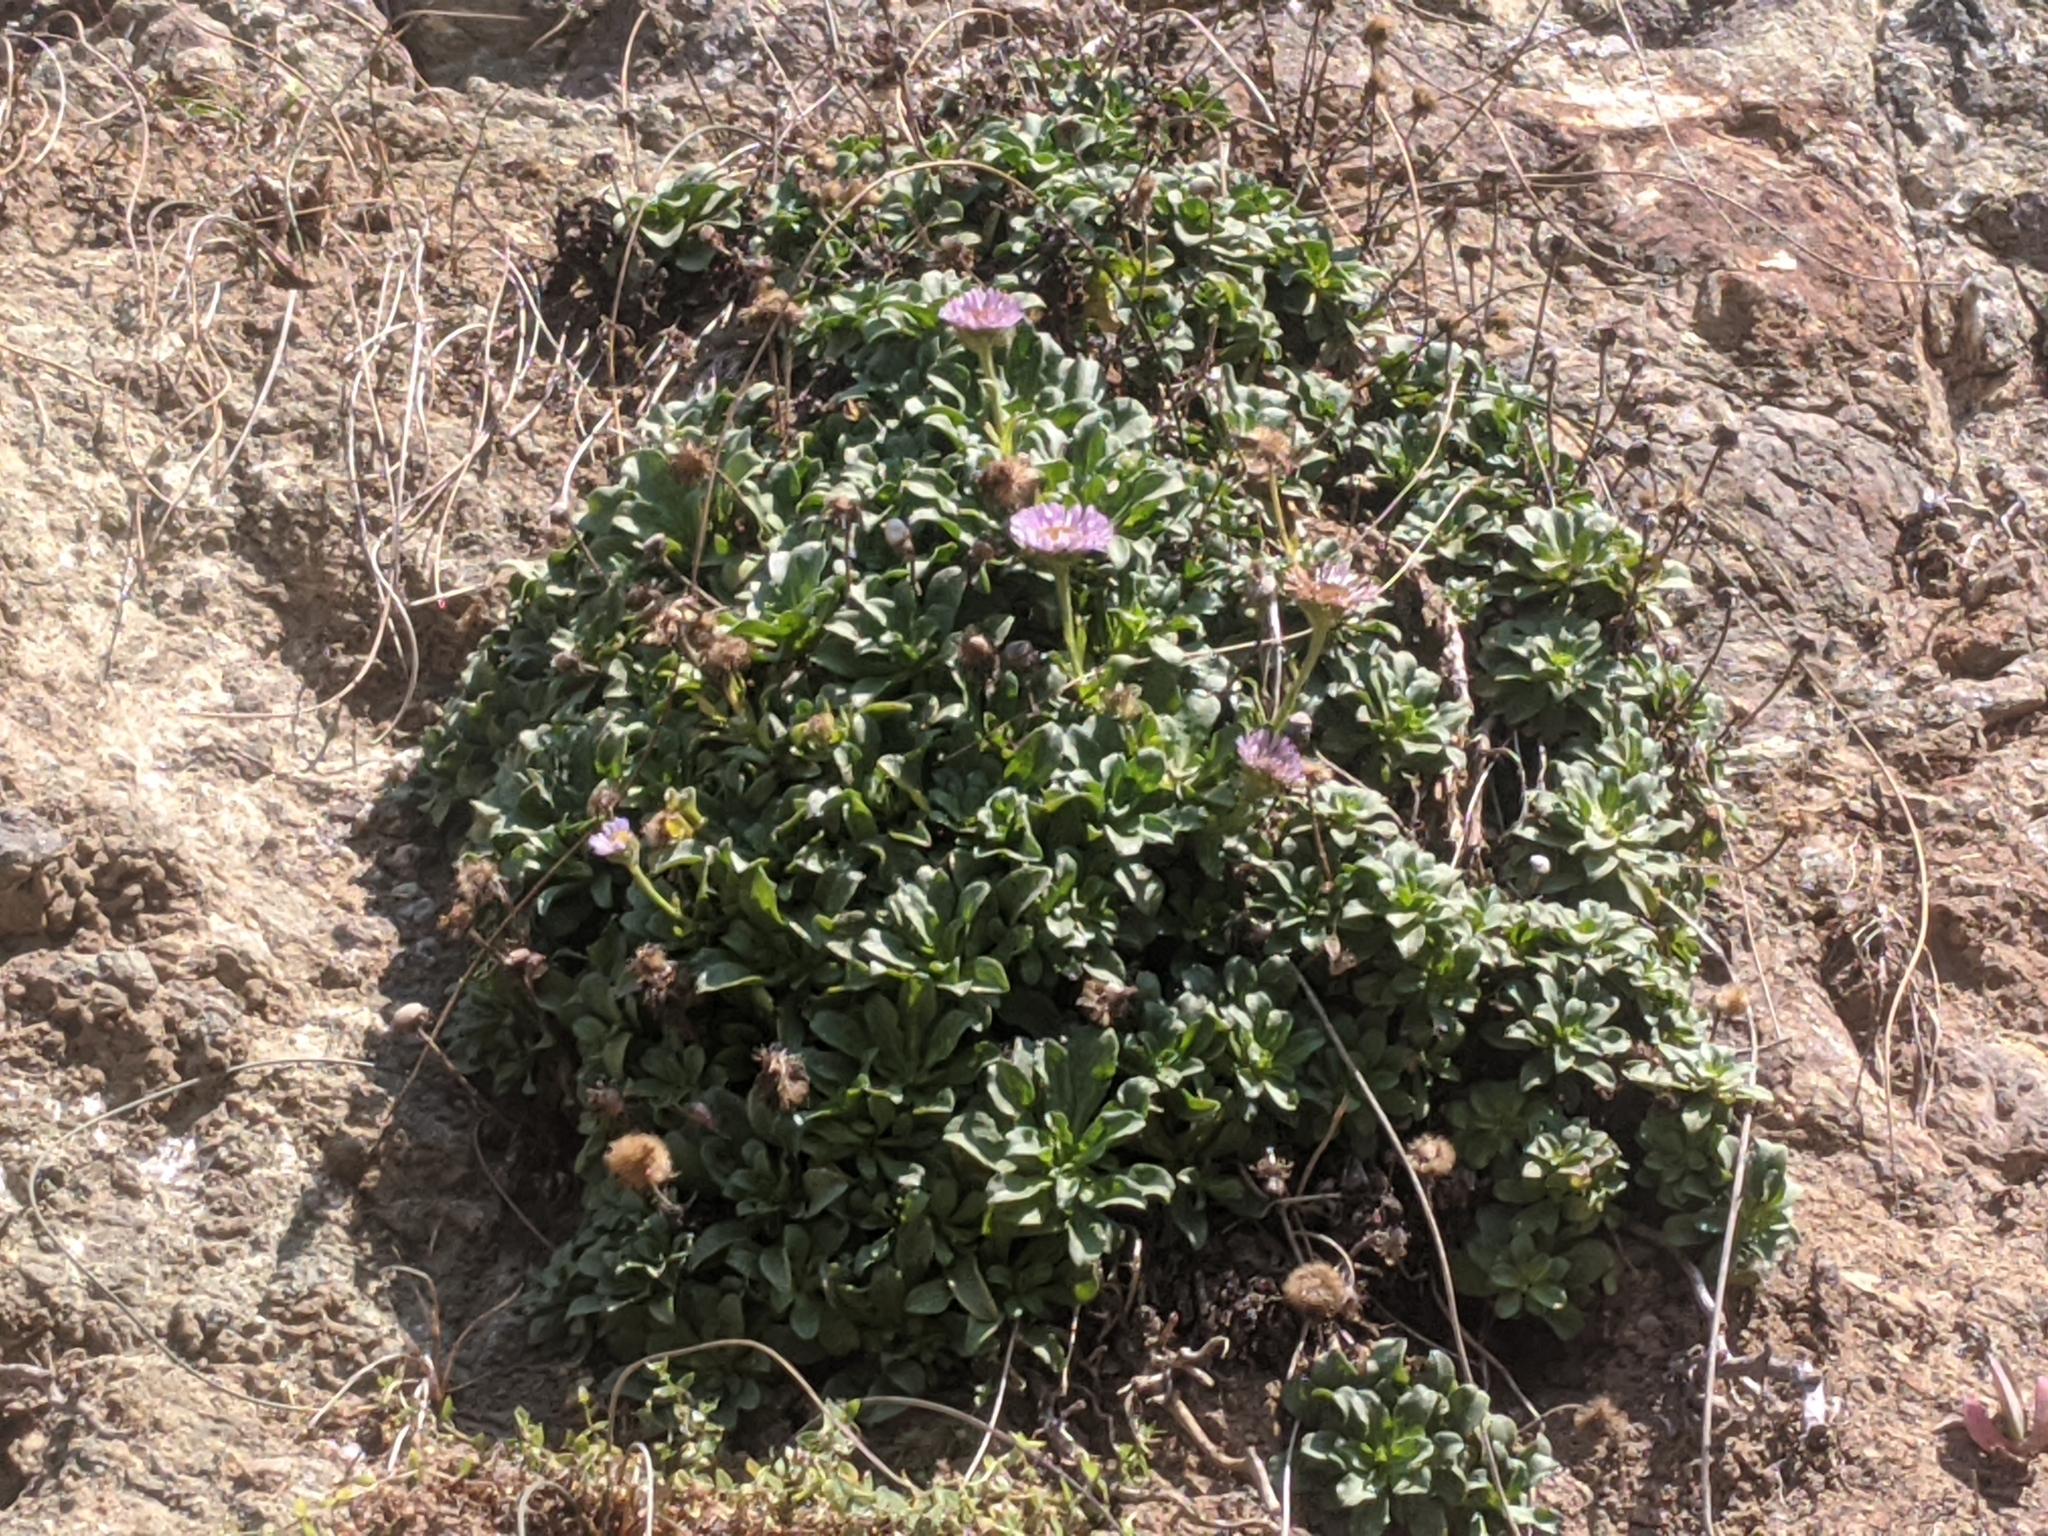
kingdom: Plantae
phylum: Tracheophyta
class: Magnoliopsida
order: Asterales
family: Asteraceae
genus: Erigeron
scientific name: Erigeron glaucus
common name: Seaside daisy
